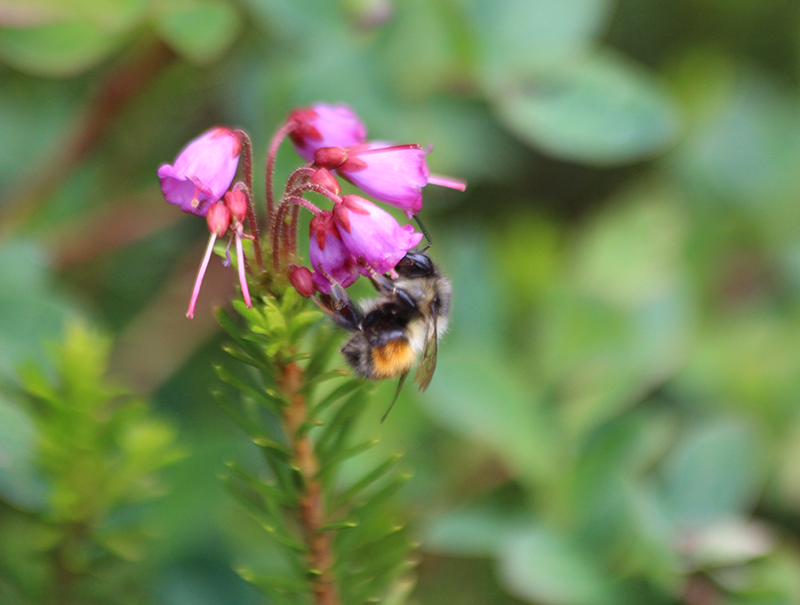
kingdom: Animalia
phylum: Arthropoda
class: Insecta
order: Hymenoptera
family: Apidae
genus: Bombus
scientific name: Bombus melanopygus
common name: Black tail bumble bee
